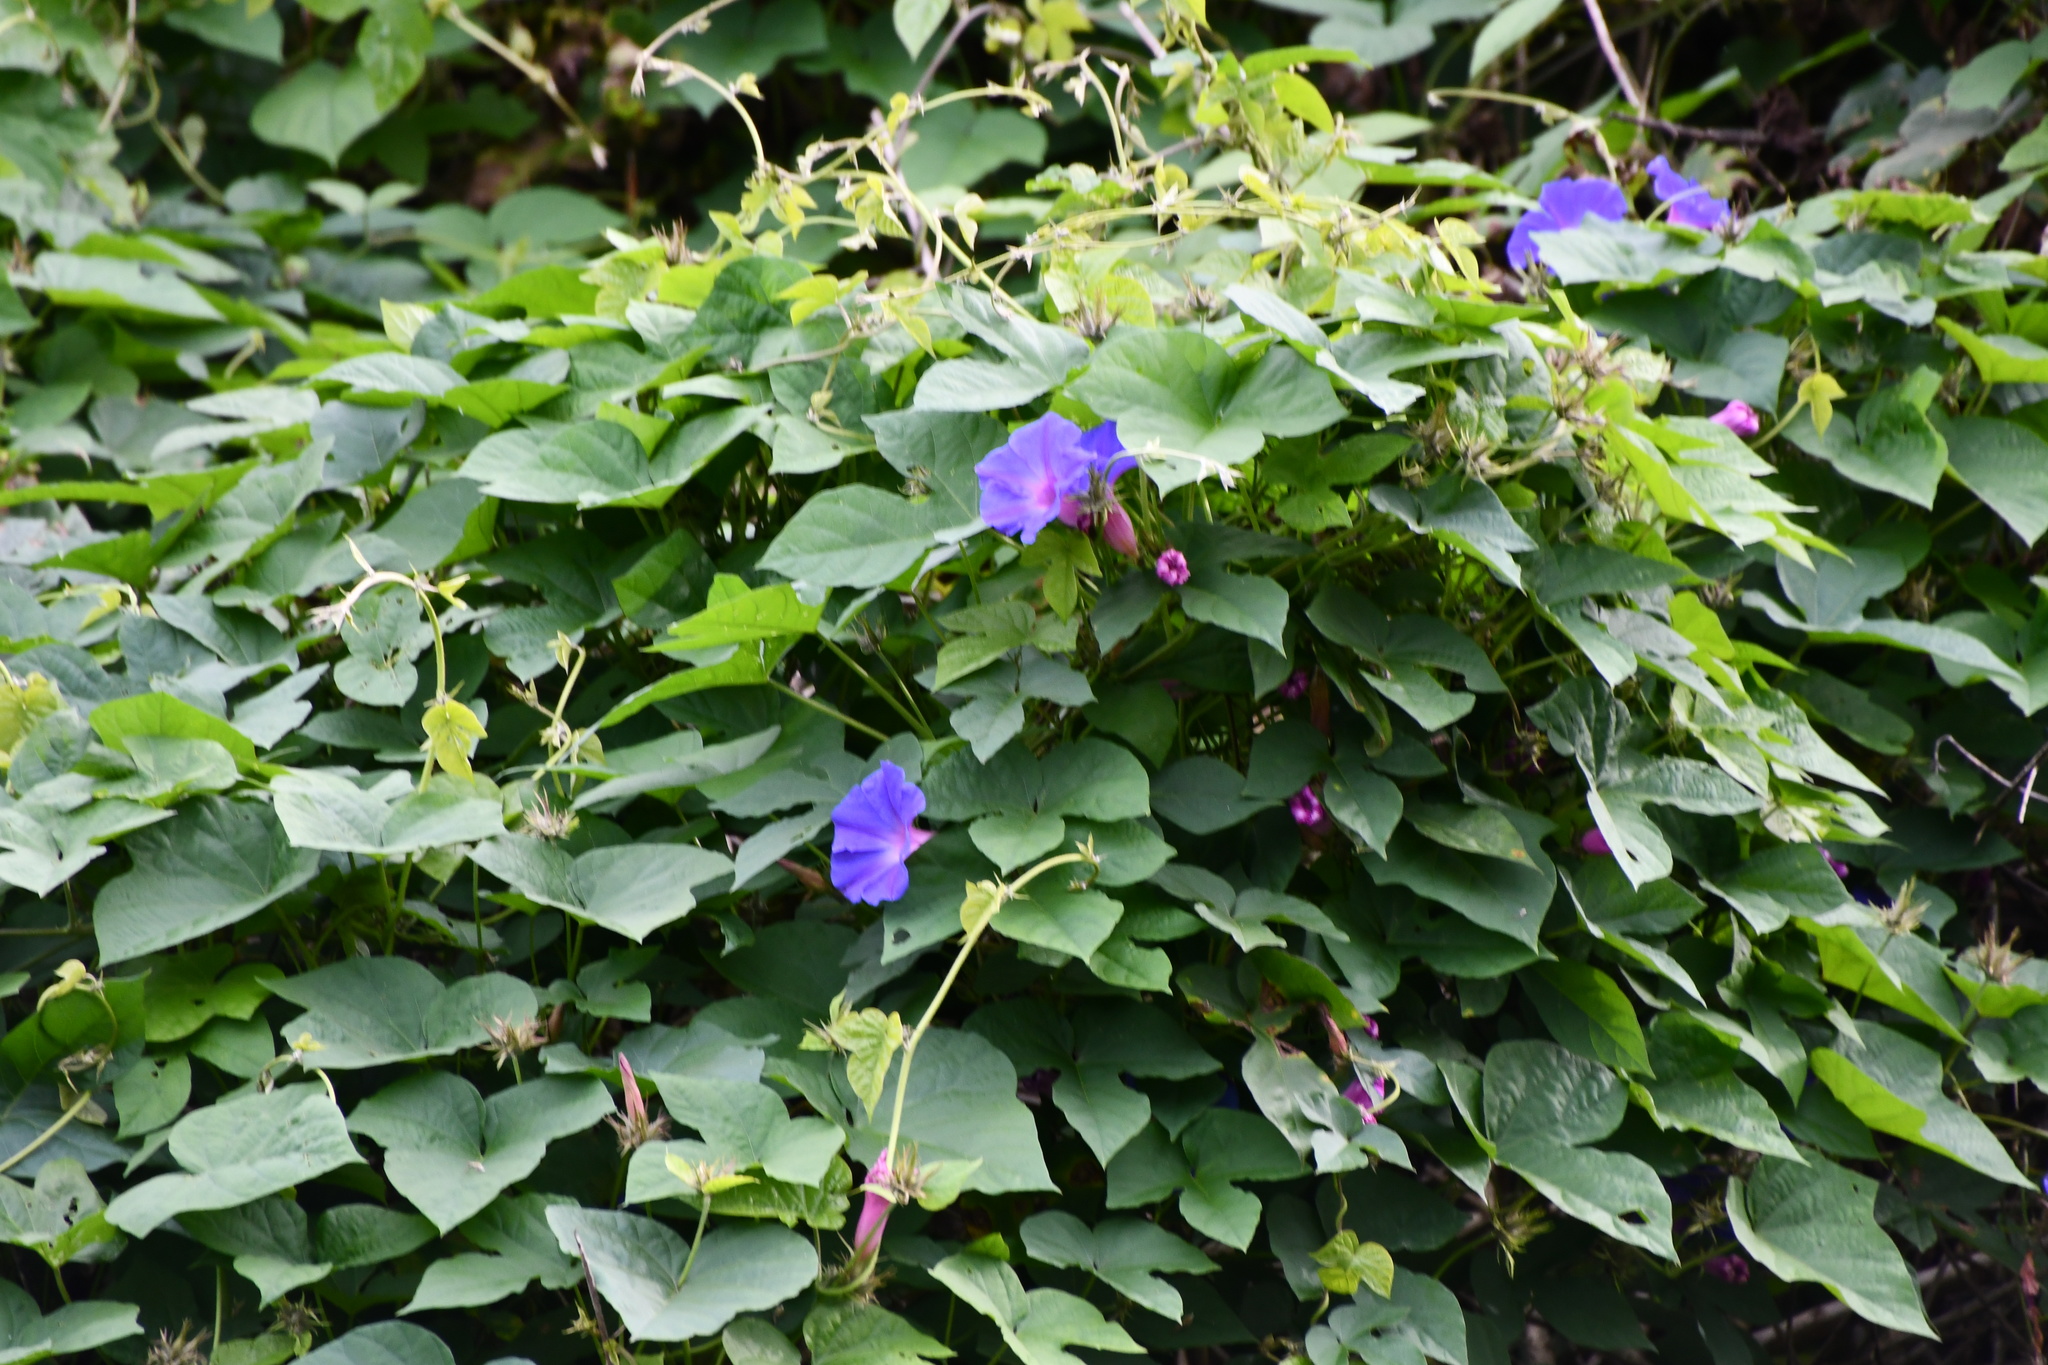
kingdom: Plantae
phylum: Tracheophyta
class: Magnoliopsida
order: Solanales
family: Convolvulaceae
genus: Ipomoea
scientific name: Ipomoea indica
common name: Blue dawnflower
